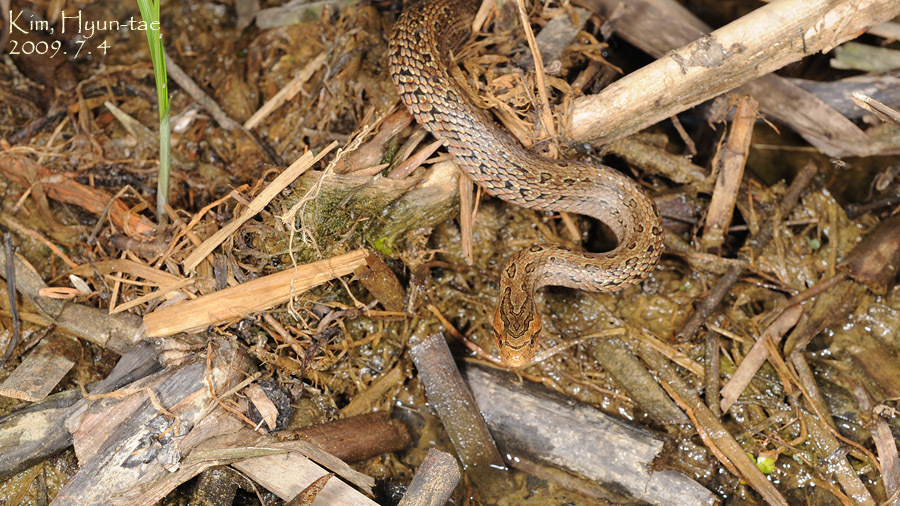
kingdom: Animalia
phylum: Chordata
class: Squamata
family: Colubridae
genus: Oocatochus
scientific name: Oocatochus rufodorsatus
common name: Frog-eating rat snake
